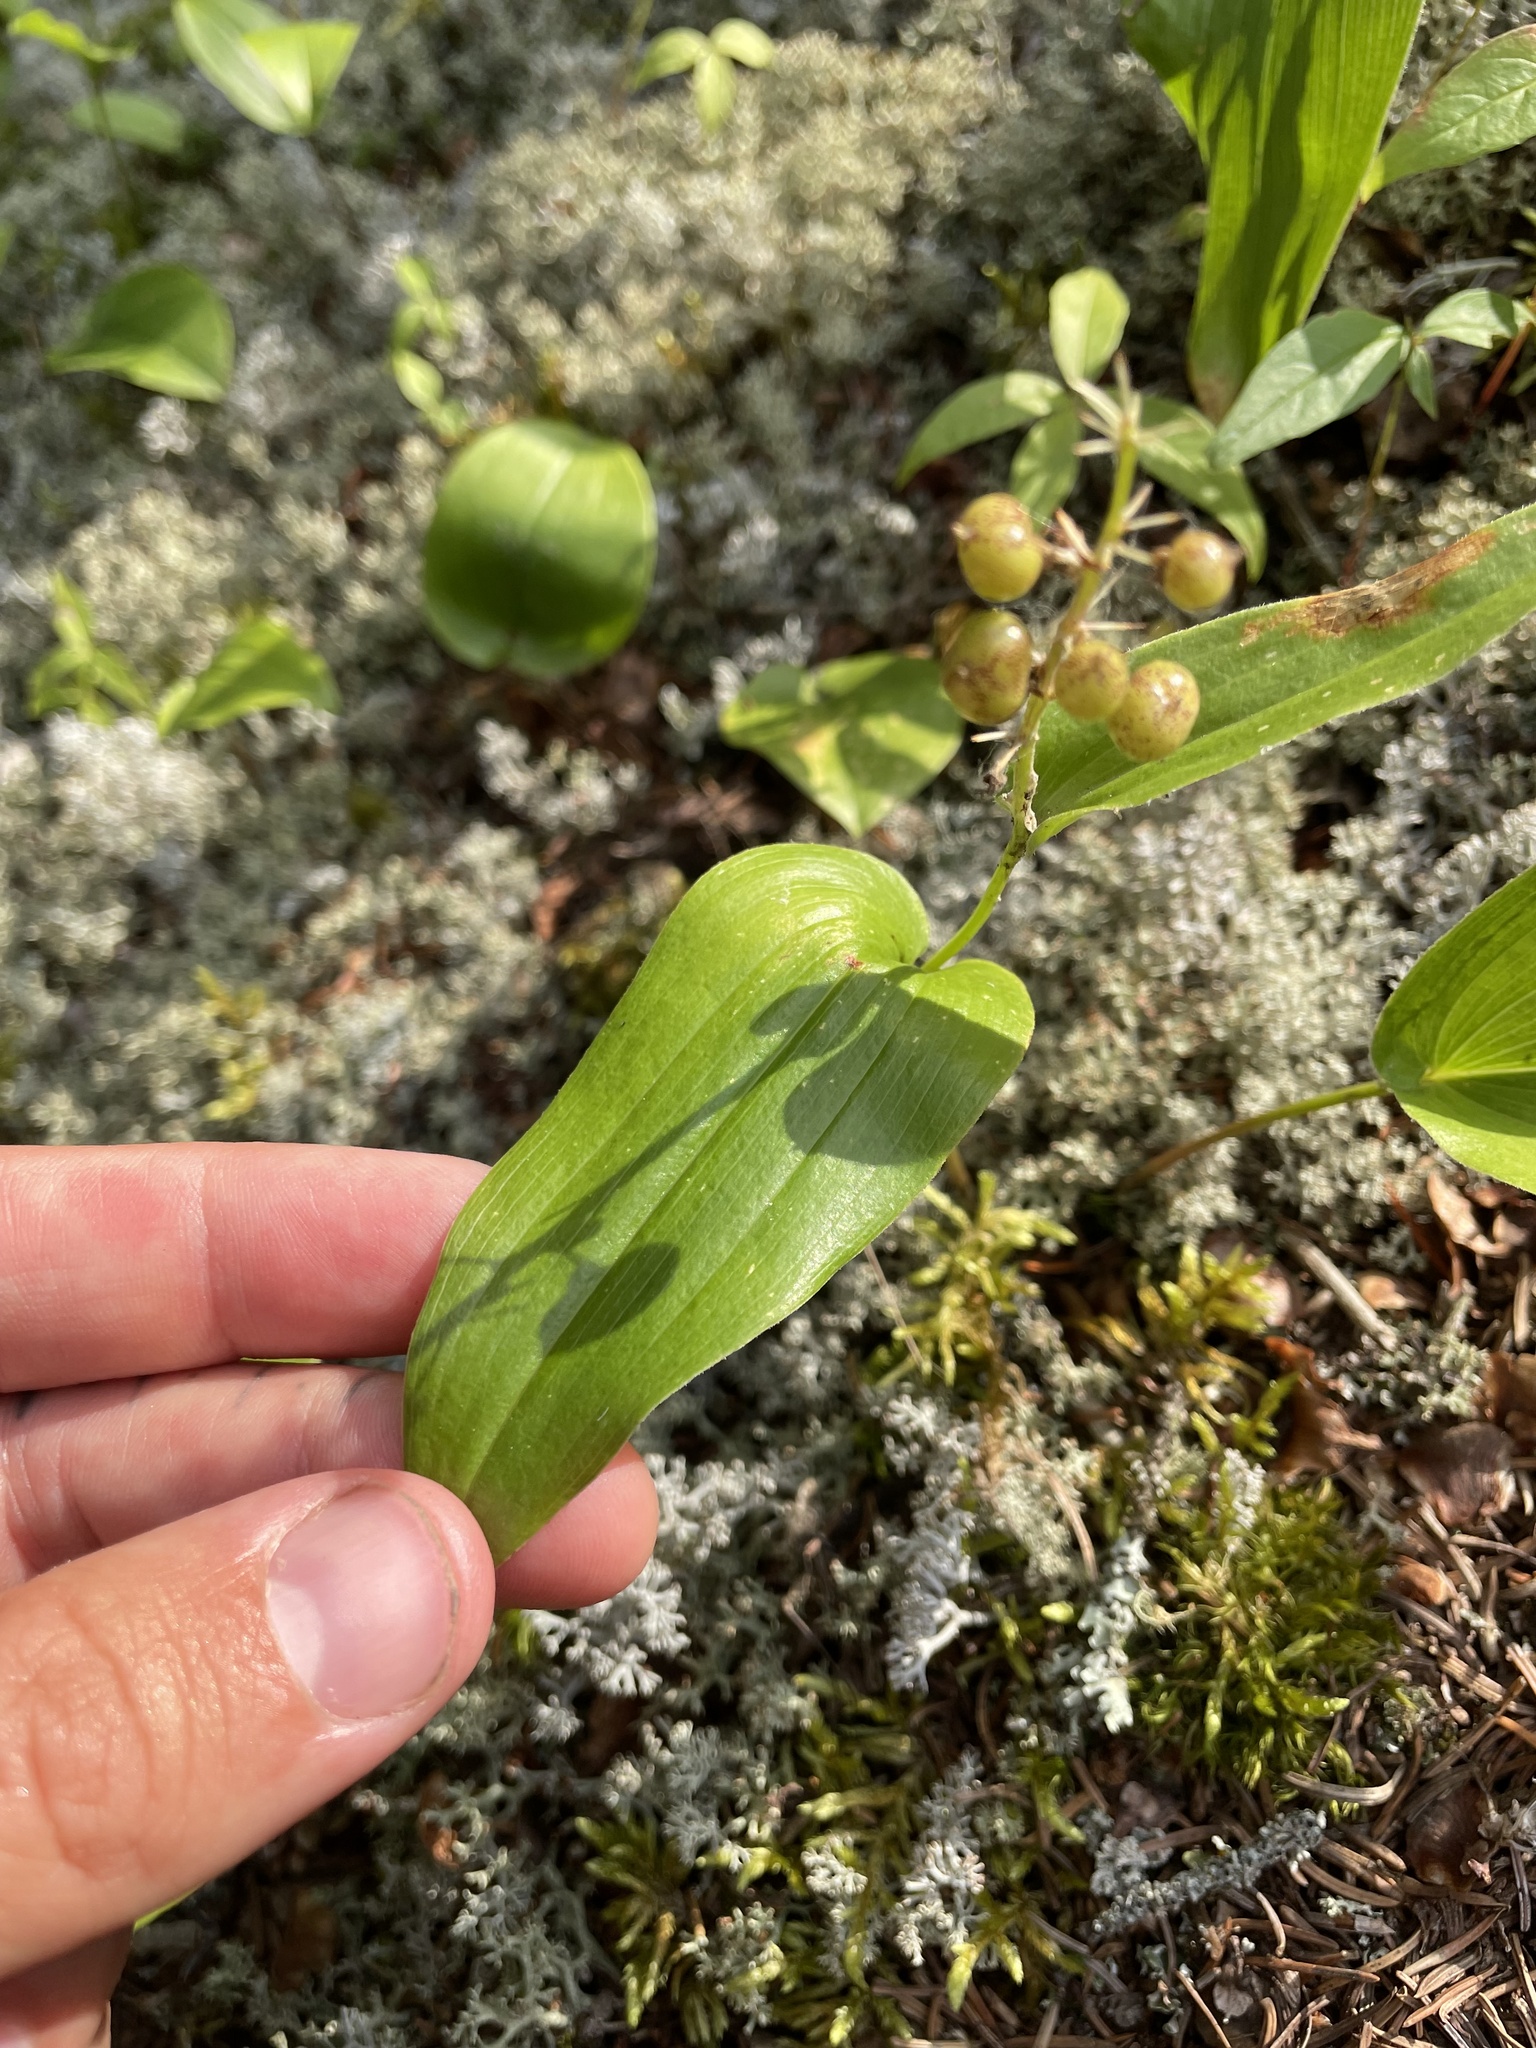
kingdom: Plantae
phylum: Tracheophyta
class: Liliopsida
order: Asparagales
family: Asparagaceae
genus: Maianthemum
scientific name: Maianthemum canadense
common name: False lily-of-the-valley
